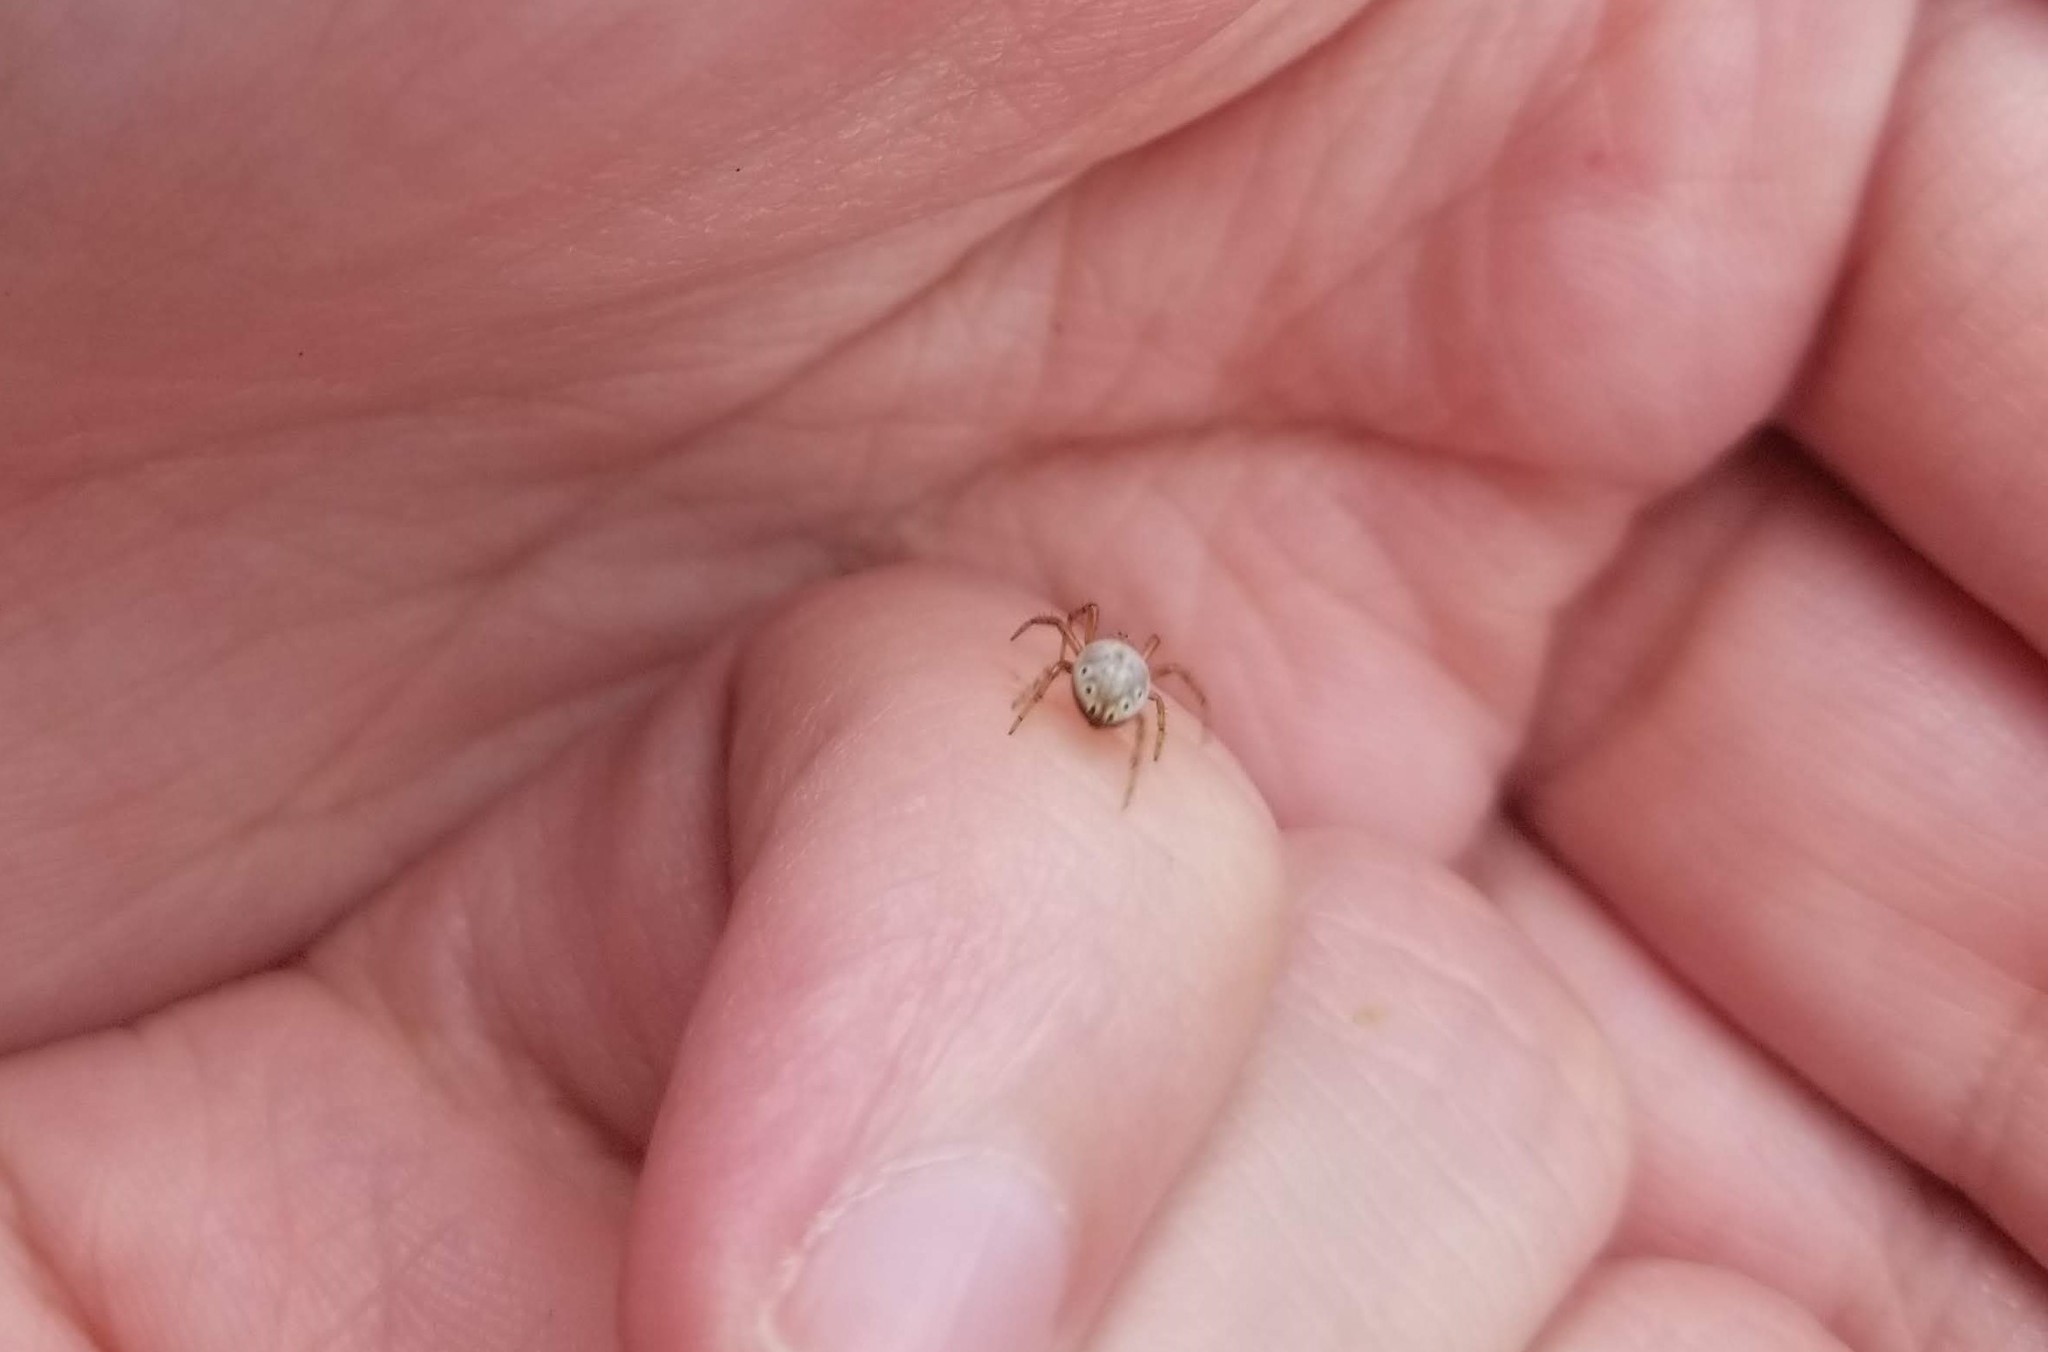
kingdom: Animalia
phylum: Arthropoda
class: Arachnida
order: Araneae
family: Araneidae
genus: Araniella
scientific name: Araniella displicata
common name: Sixspotted orb weaver
